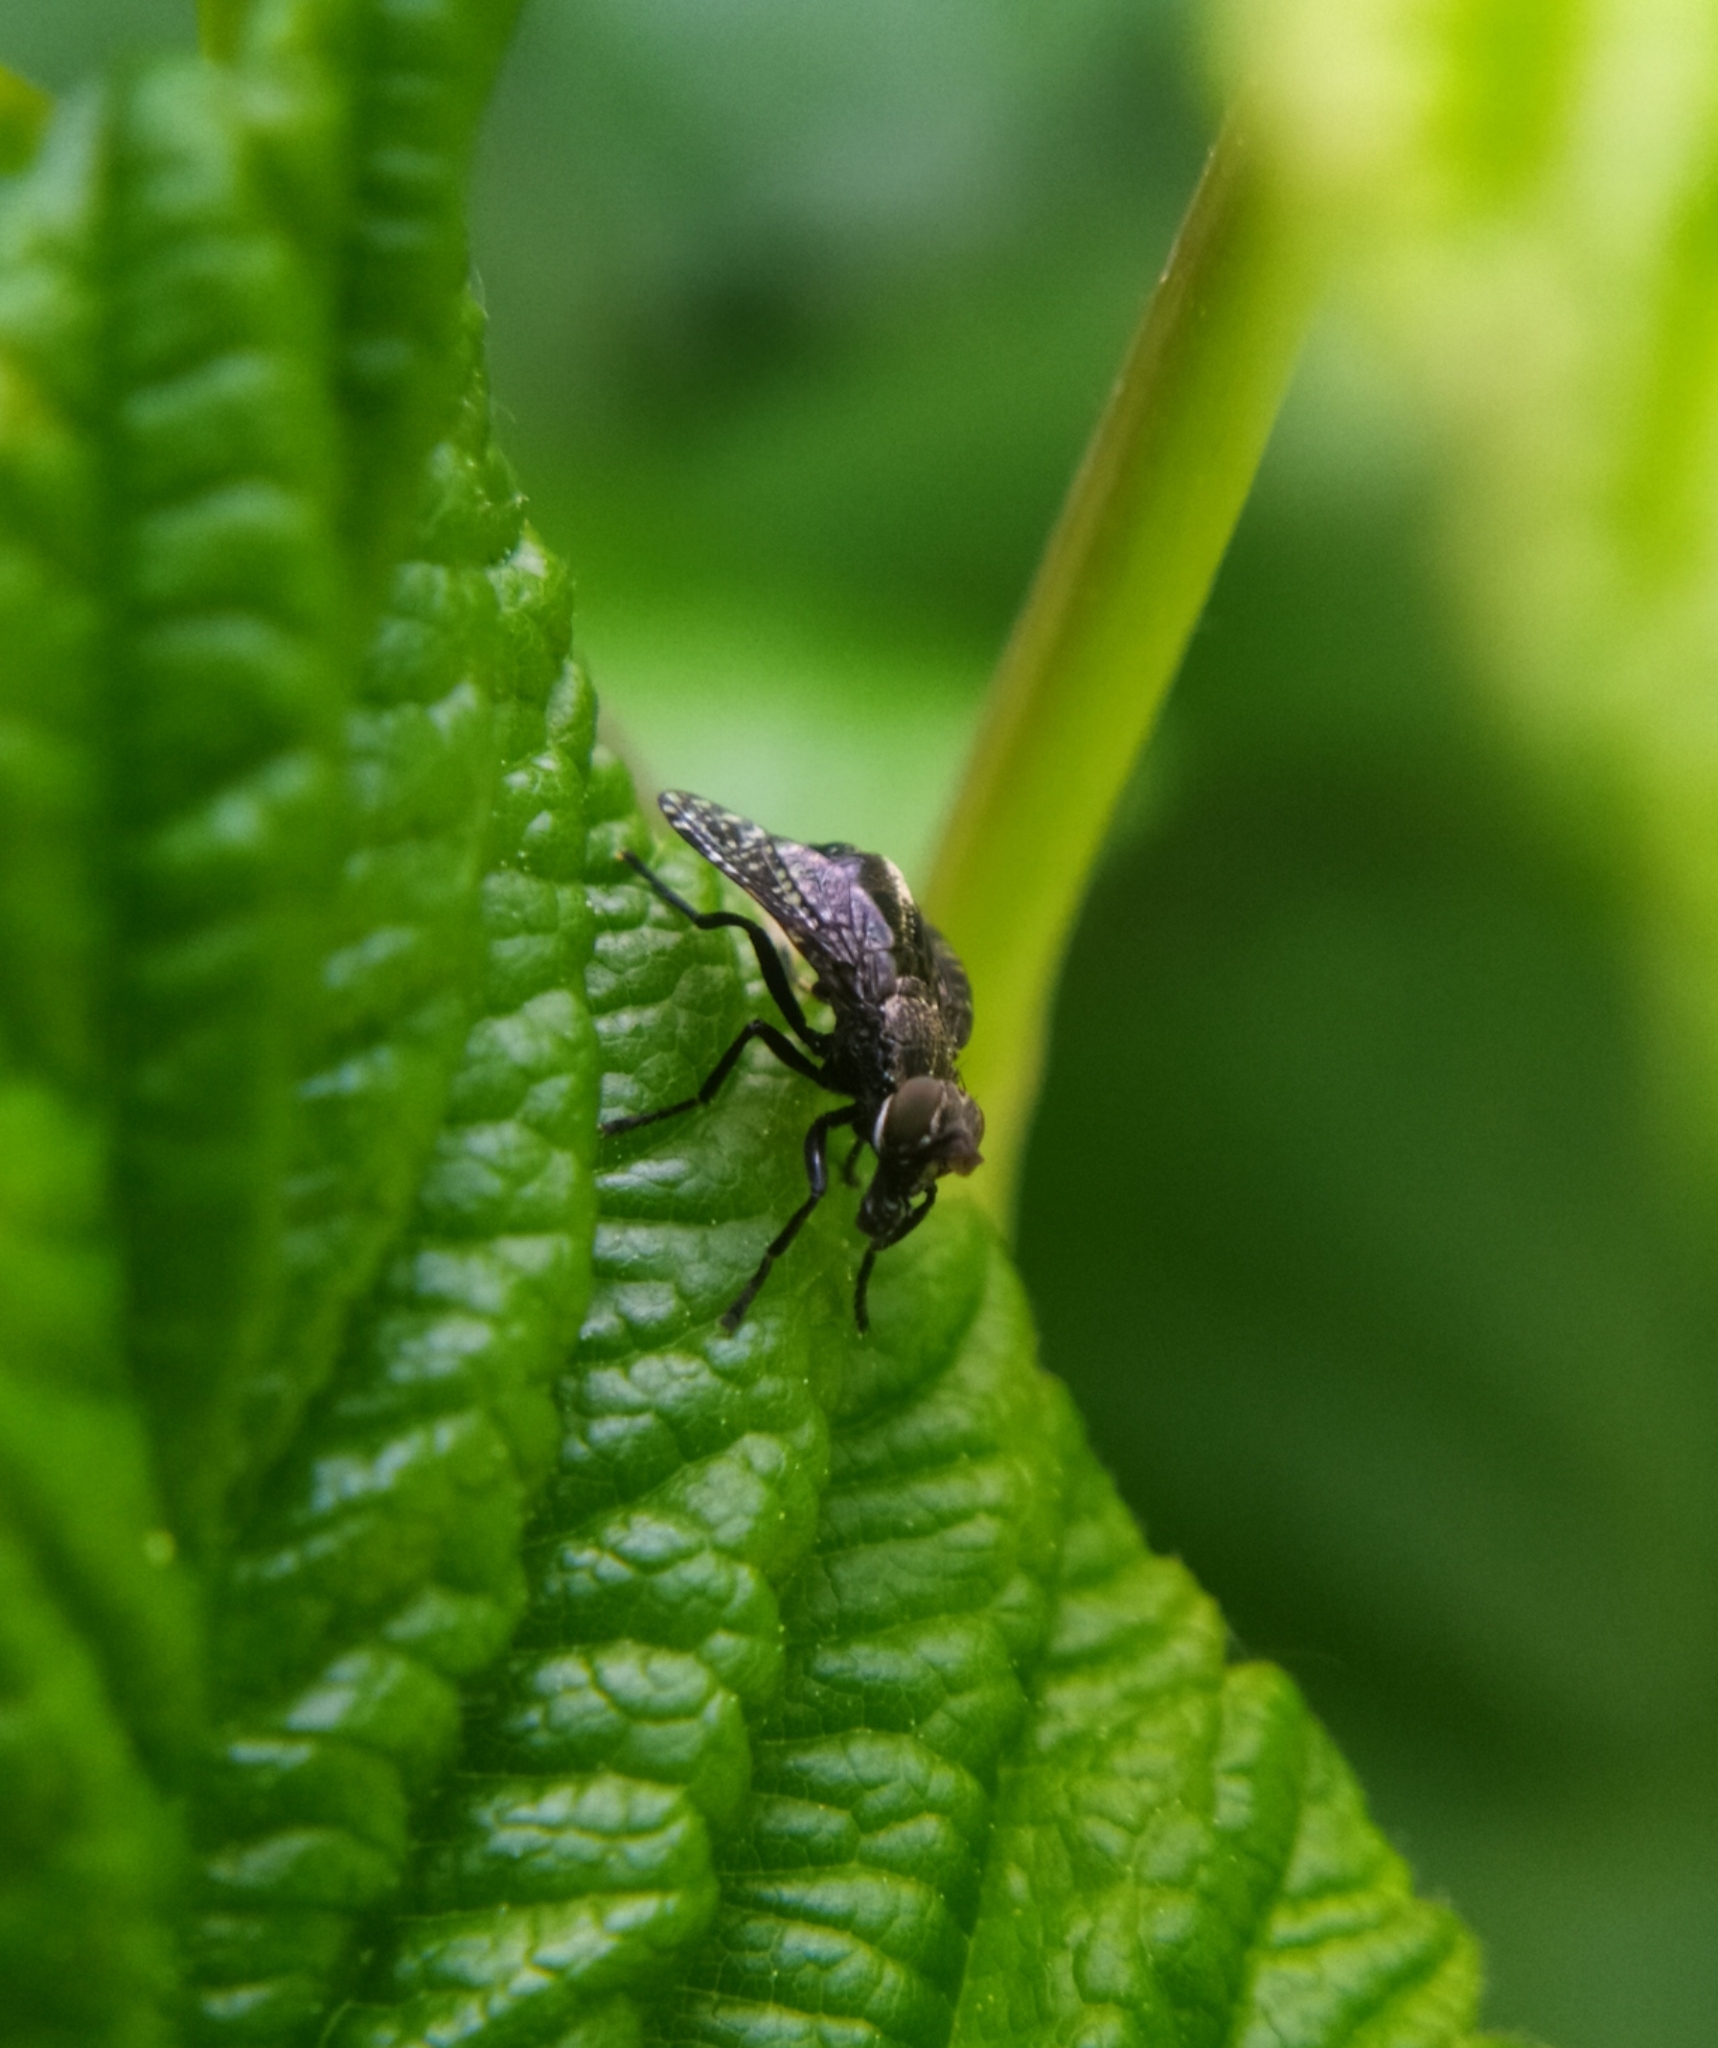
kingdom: Animalia
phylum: Arthropoda
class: Insecta
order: Diptera
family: Platystomatidae
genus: Platystoma
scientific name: Platystoma seminationis
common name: Fly
